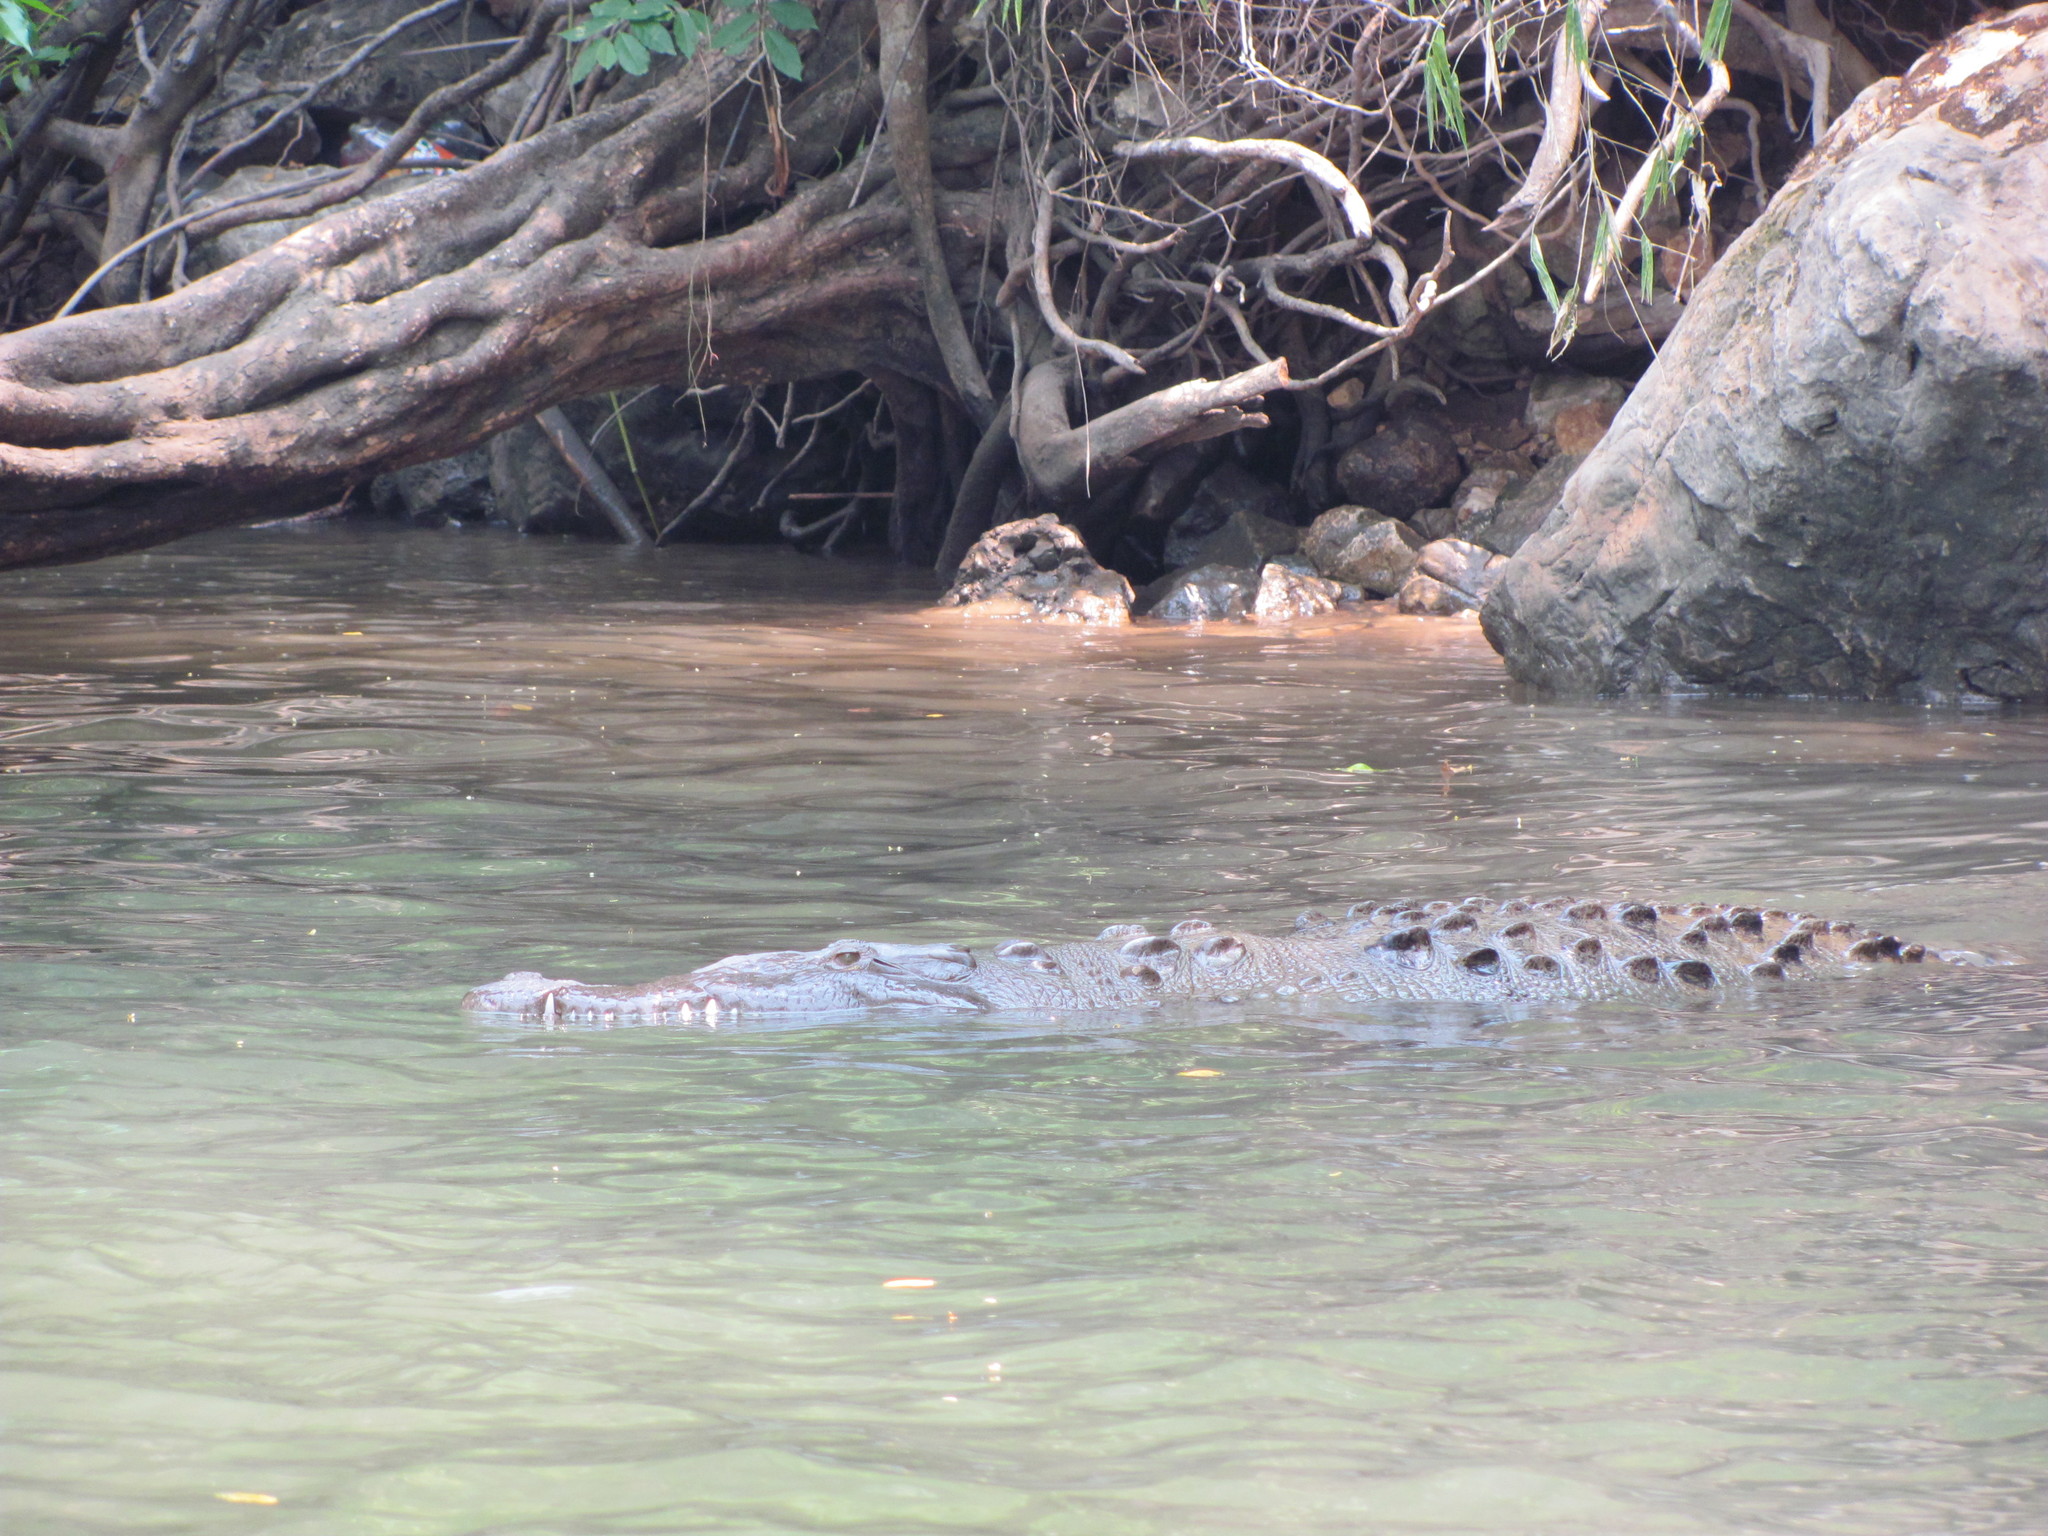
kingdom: Animalia
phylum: Chordata
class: Crocodylia
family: Crocodylidae
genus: Crocodylus
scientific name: Crocodylus acutus
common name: American crocodile
